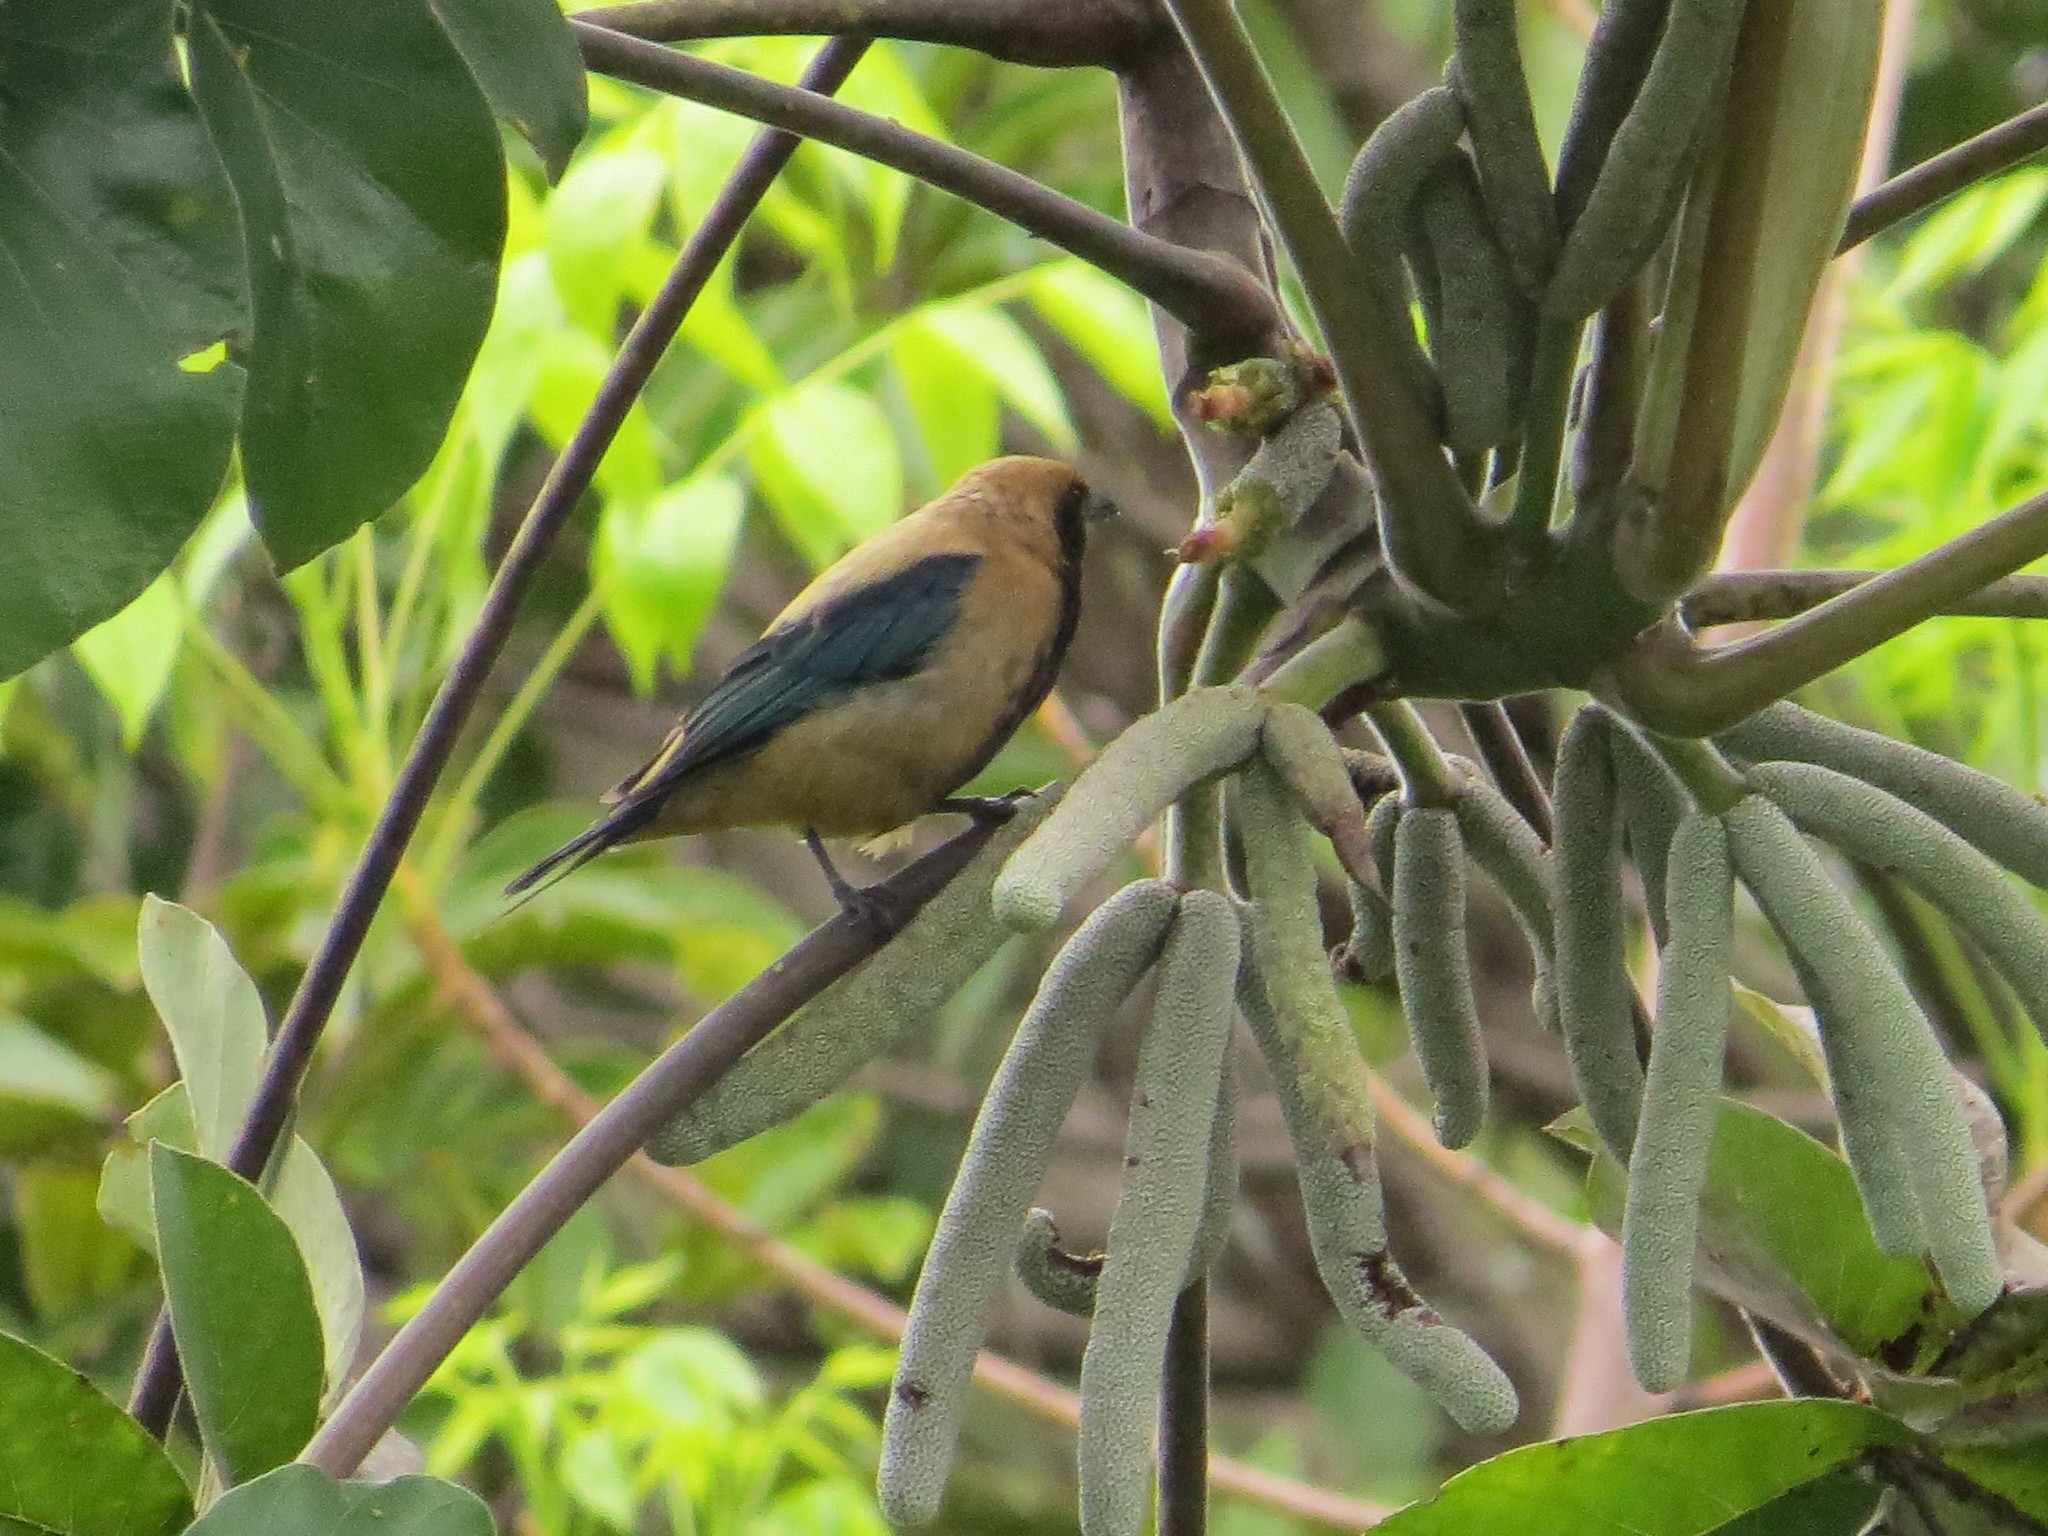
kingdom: Animalia
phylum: Chordata
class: Aves
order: Passeriformes
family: Thraupidae
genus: Stilpnia
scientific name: Stilpnia cayana
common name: Burnished-buff tanager
